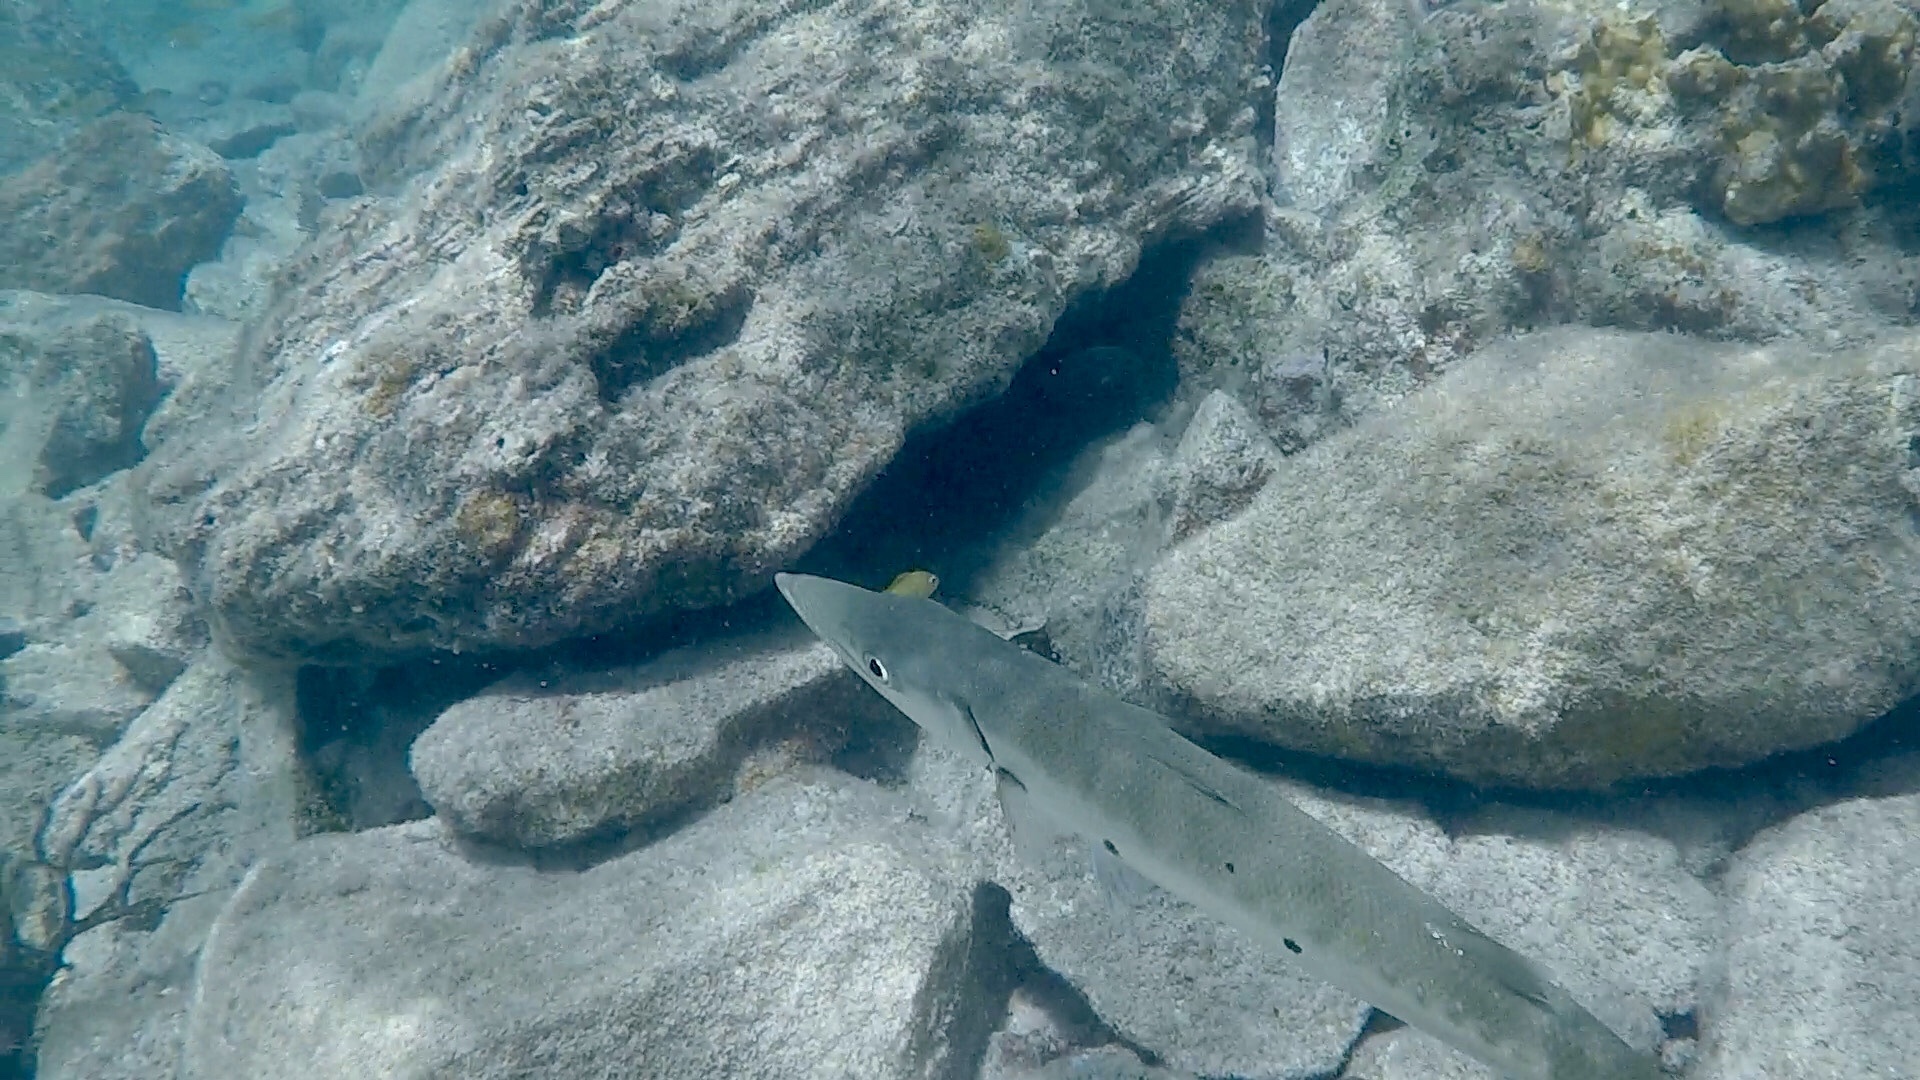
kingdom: Animalia
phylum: Chordata
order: Perciformes
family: Sphyraenidae
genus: Sphyraena
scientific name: Sphyraena barracuda
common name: Great barracuda
